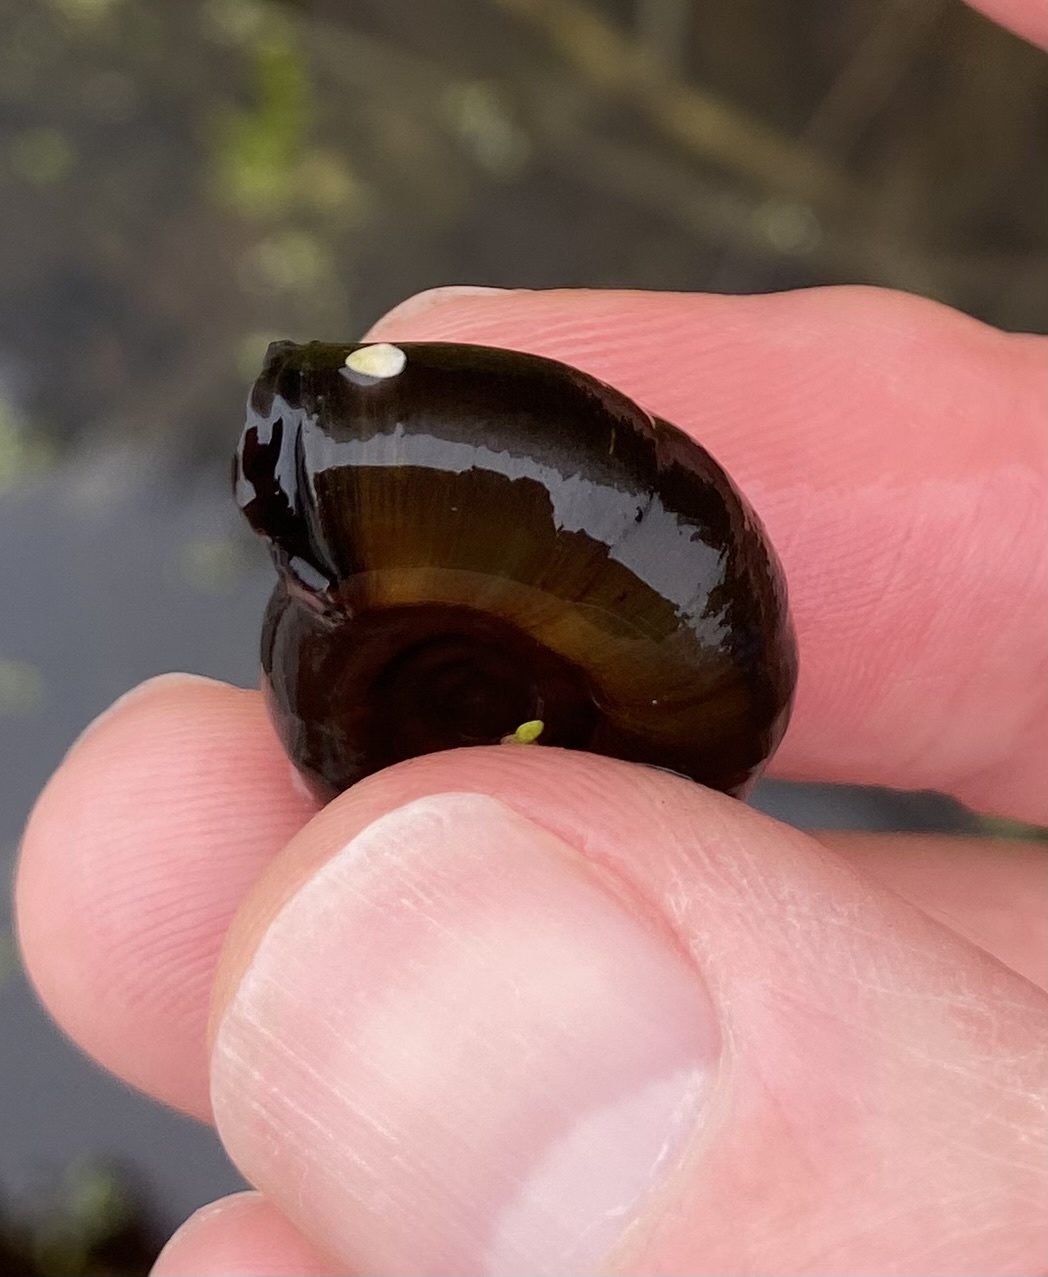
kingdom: Animalia
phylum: Mollusca
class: Gastropoda
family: Planorbidae
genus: Planorbarius
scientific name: Planorbarius corneus
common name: Great ramshorn
